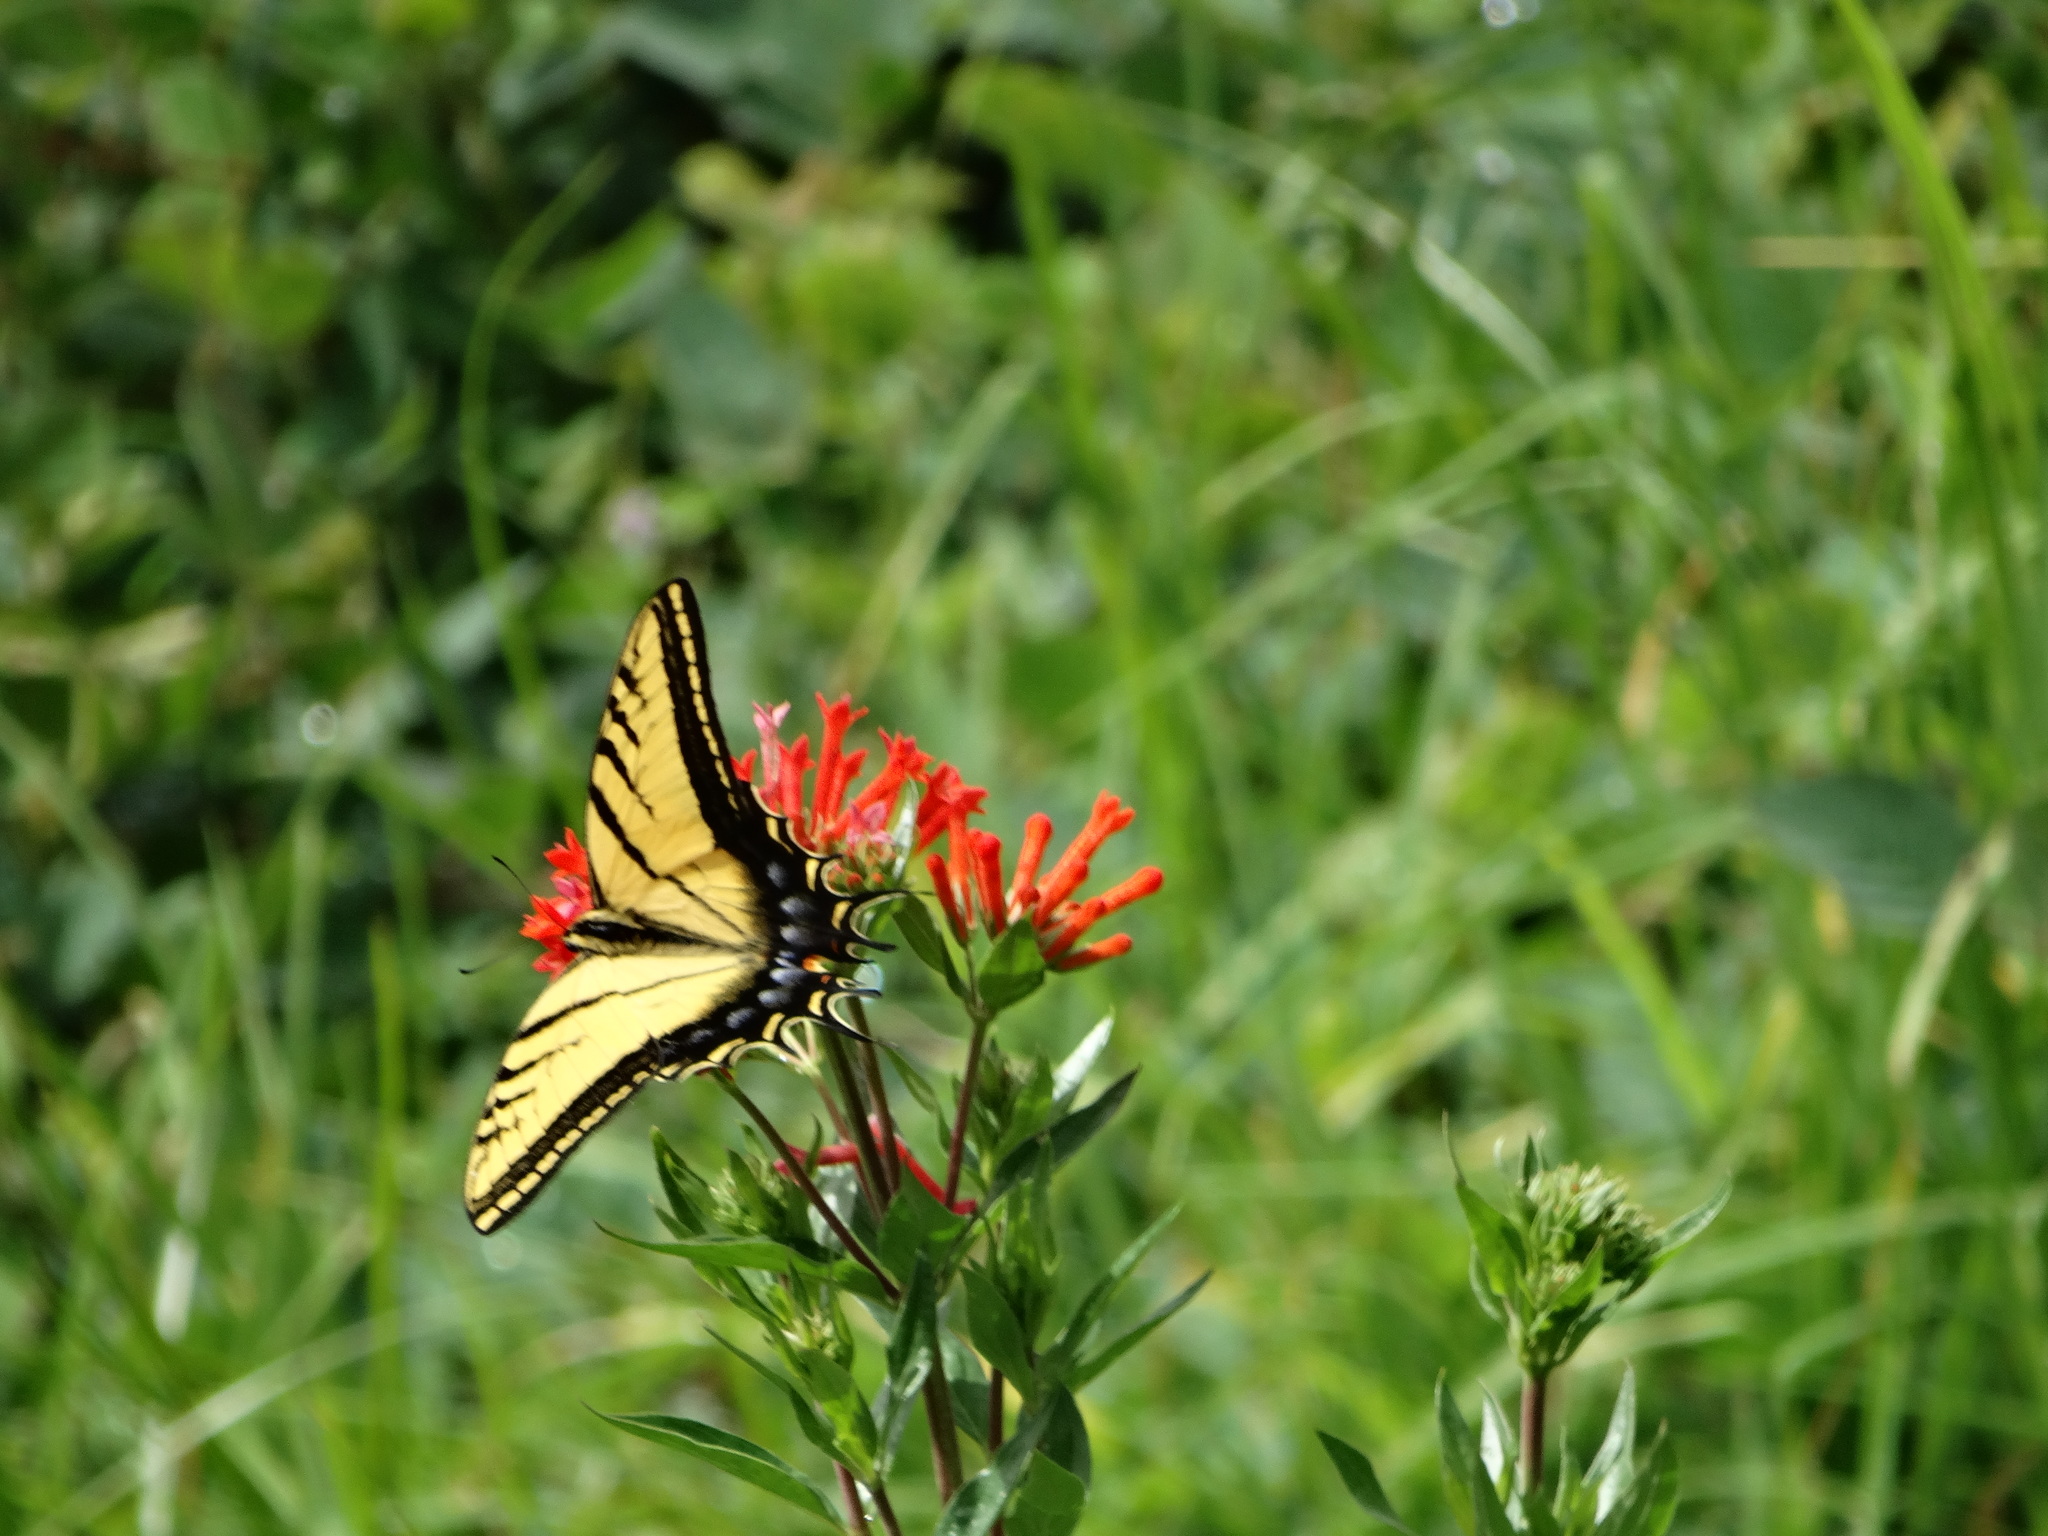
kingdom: Animalia
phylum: Arthropoda
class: Insecta
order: Lepidoptera
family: Papilionidae
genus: Papilio
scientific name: Papilio multicaudata
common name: Two-tailed tiger swallowtail
